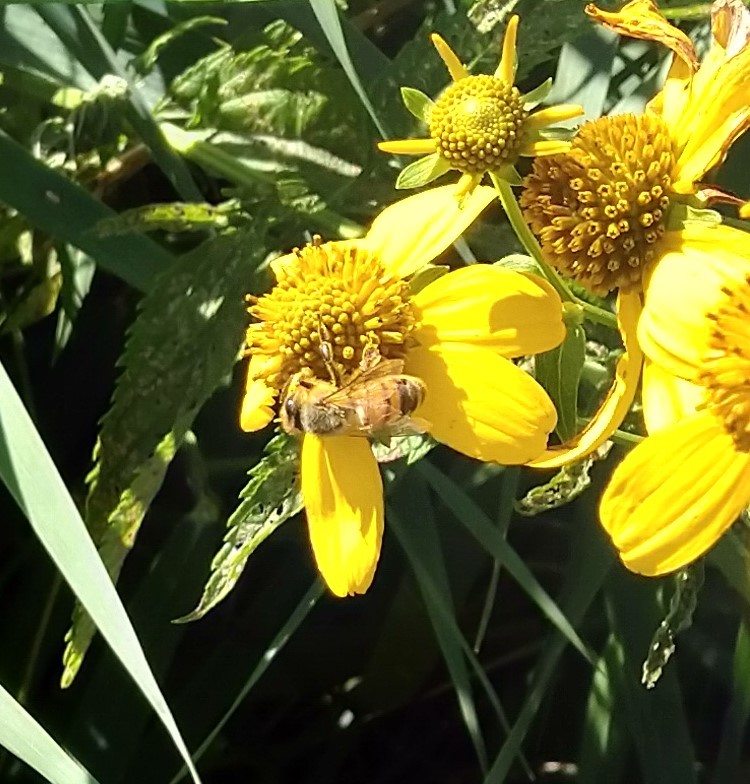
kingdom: Animalia
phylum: Arthropoda
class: Insecta
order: Hymenoptera
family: Apidae
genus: Apis
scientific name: Apis mellifera
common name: Honey bee
